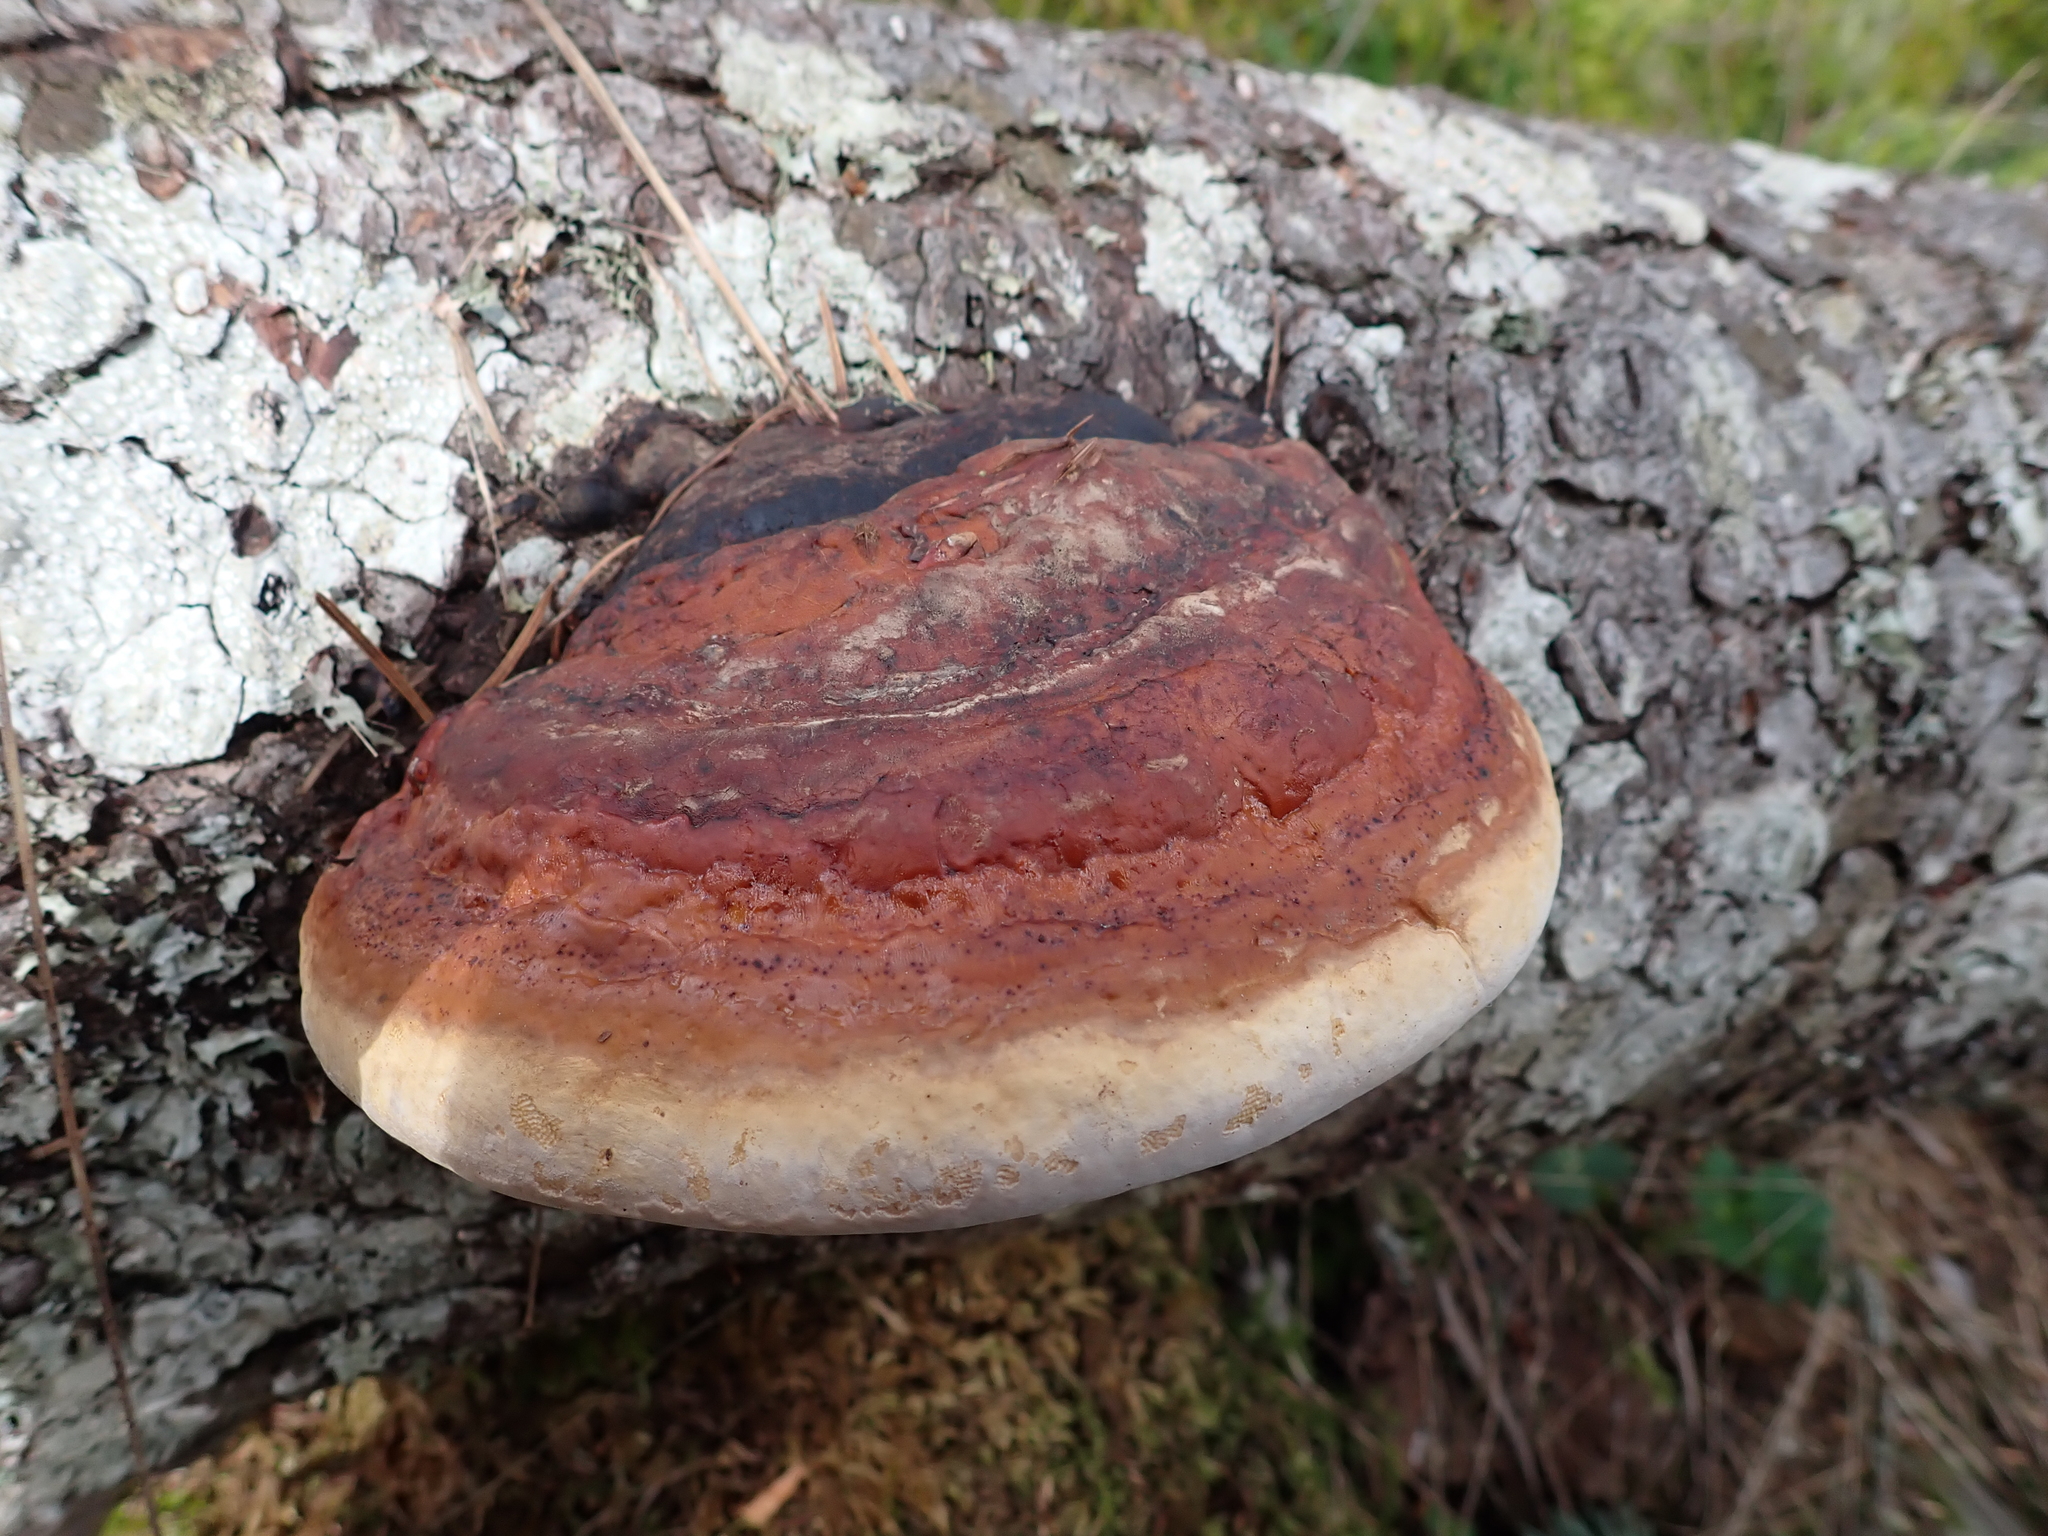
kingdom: Fungi
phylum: Basidiomycota
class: Agaricomycetes
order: Polyporales
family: Fomitopsidaceae
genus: Fomitopsis
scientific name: Fomitopsis mounceae
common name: Northern red belt
